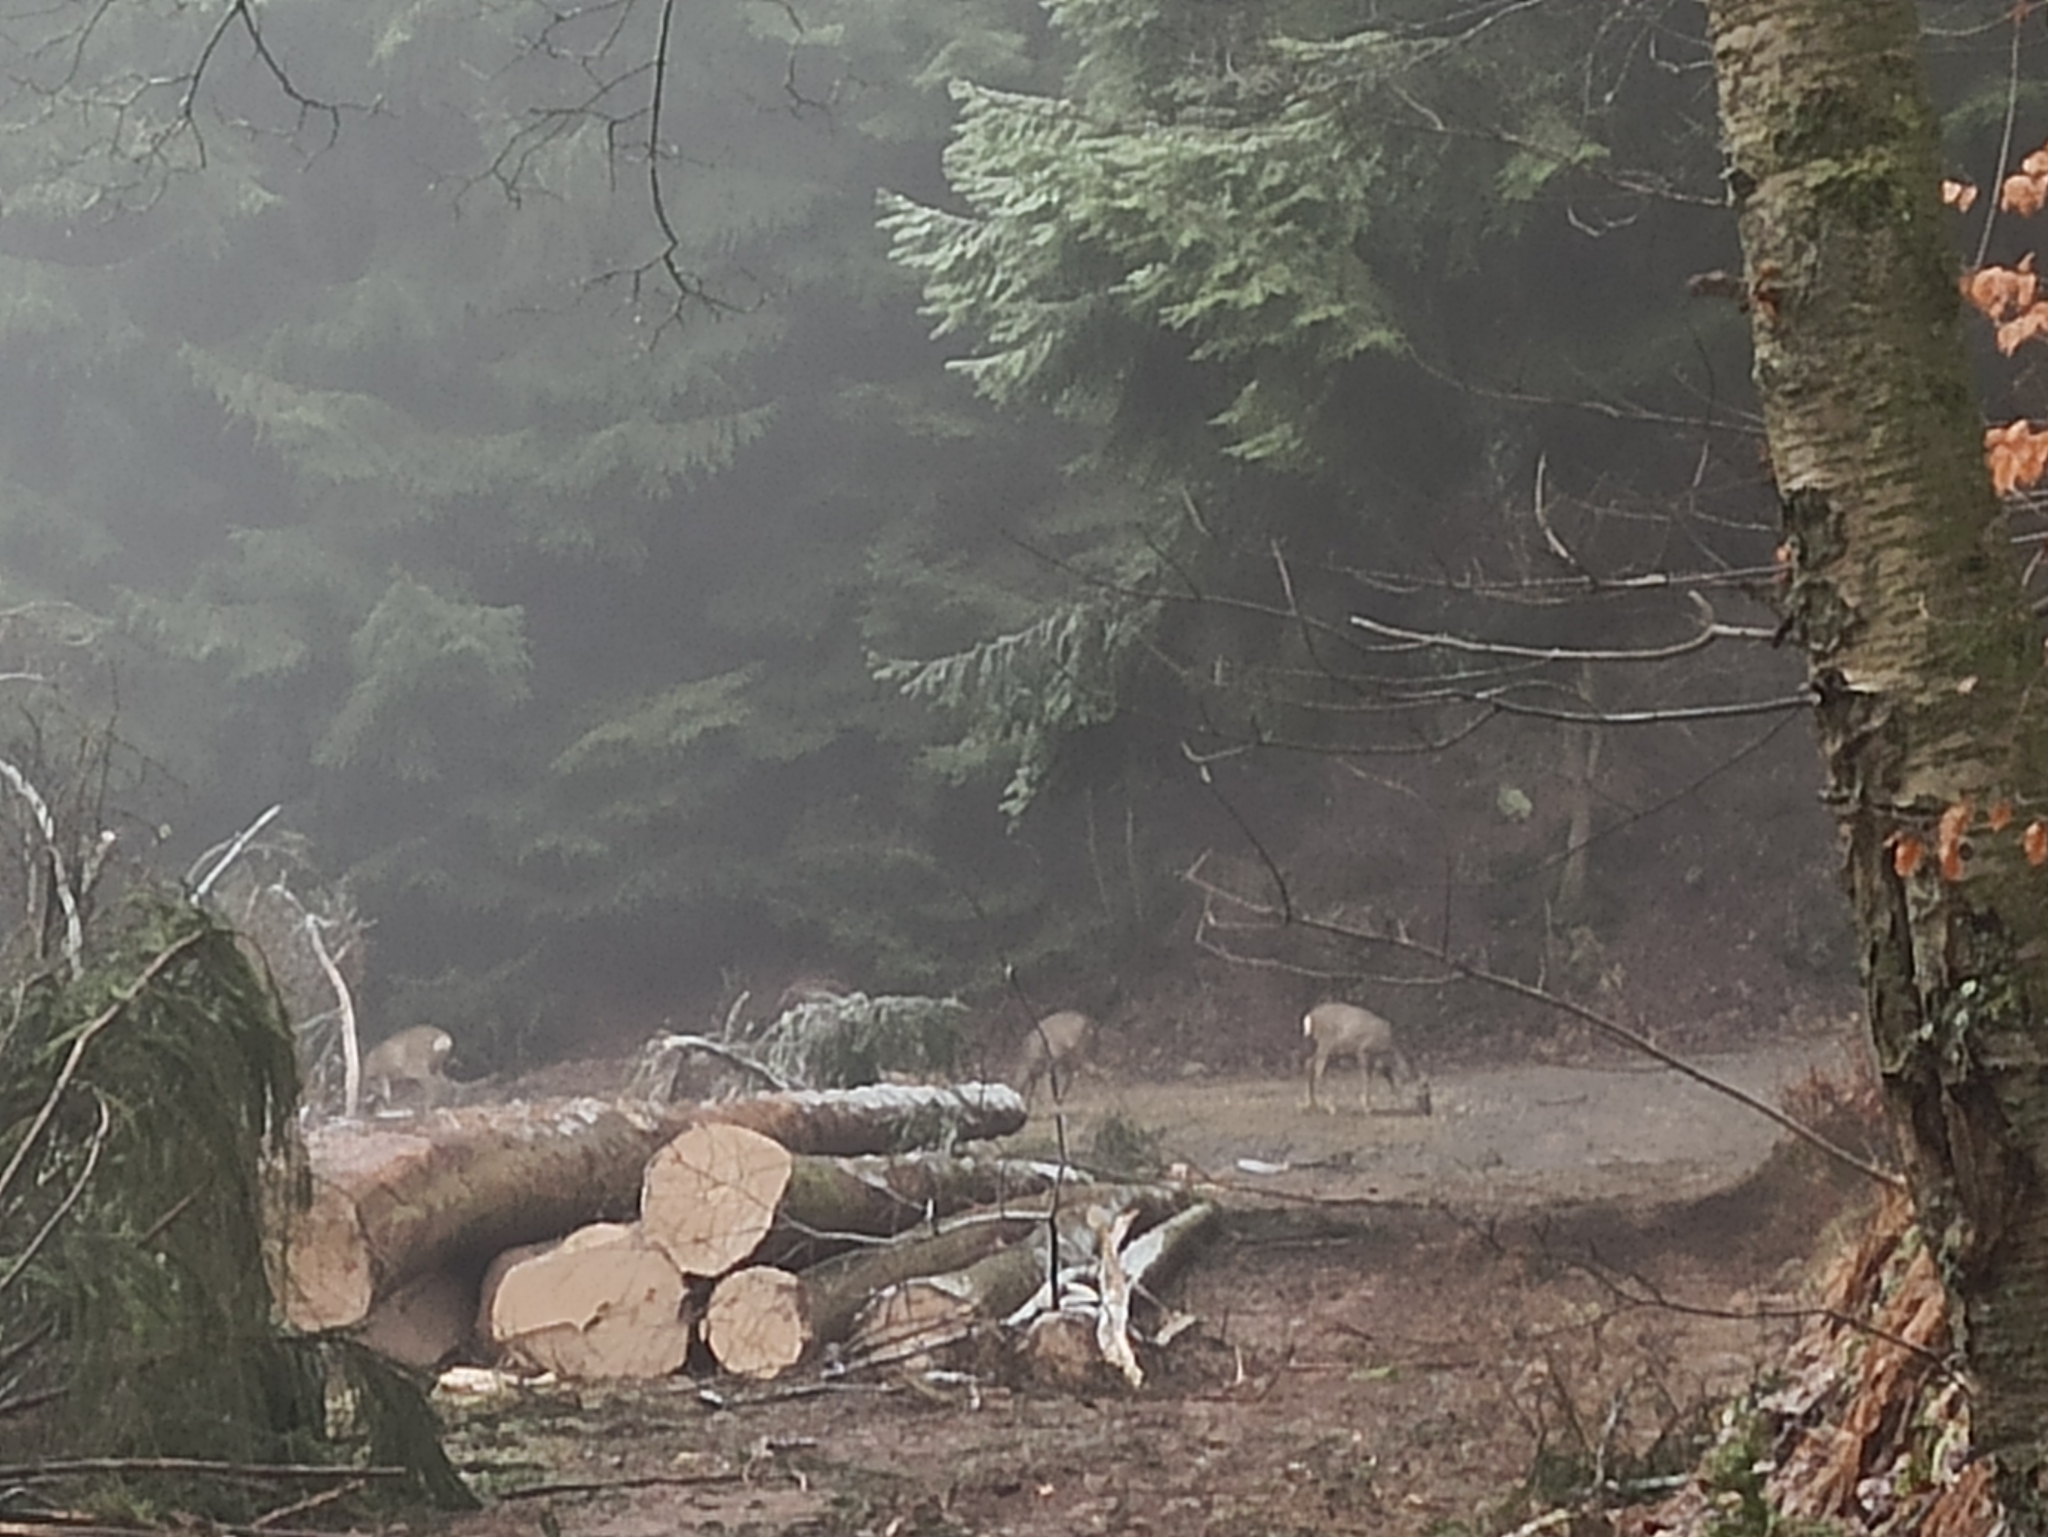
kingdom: Animalia
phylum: Chordata
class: Mammalia
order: Artiodactyla
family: Cervidae
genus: Capreolus
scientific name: Capreolus capreolus
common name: Western roe deer
